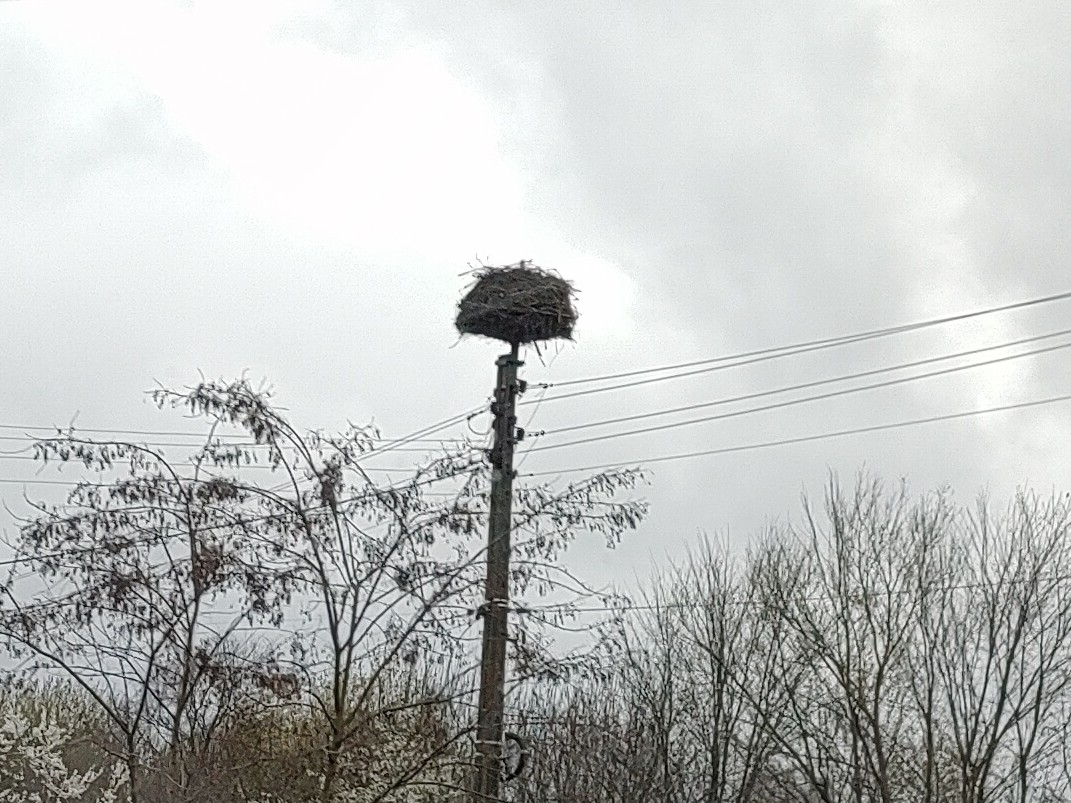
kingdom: Animalia
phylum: Chordata
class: Aves
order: Ciconiiformes
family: Ciconiidae
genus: Ciconia
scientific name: Ciconia ciconia
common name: White stork
